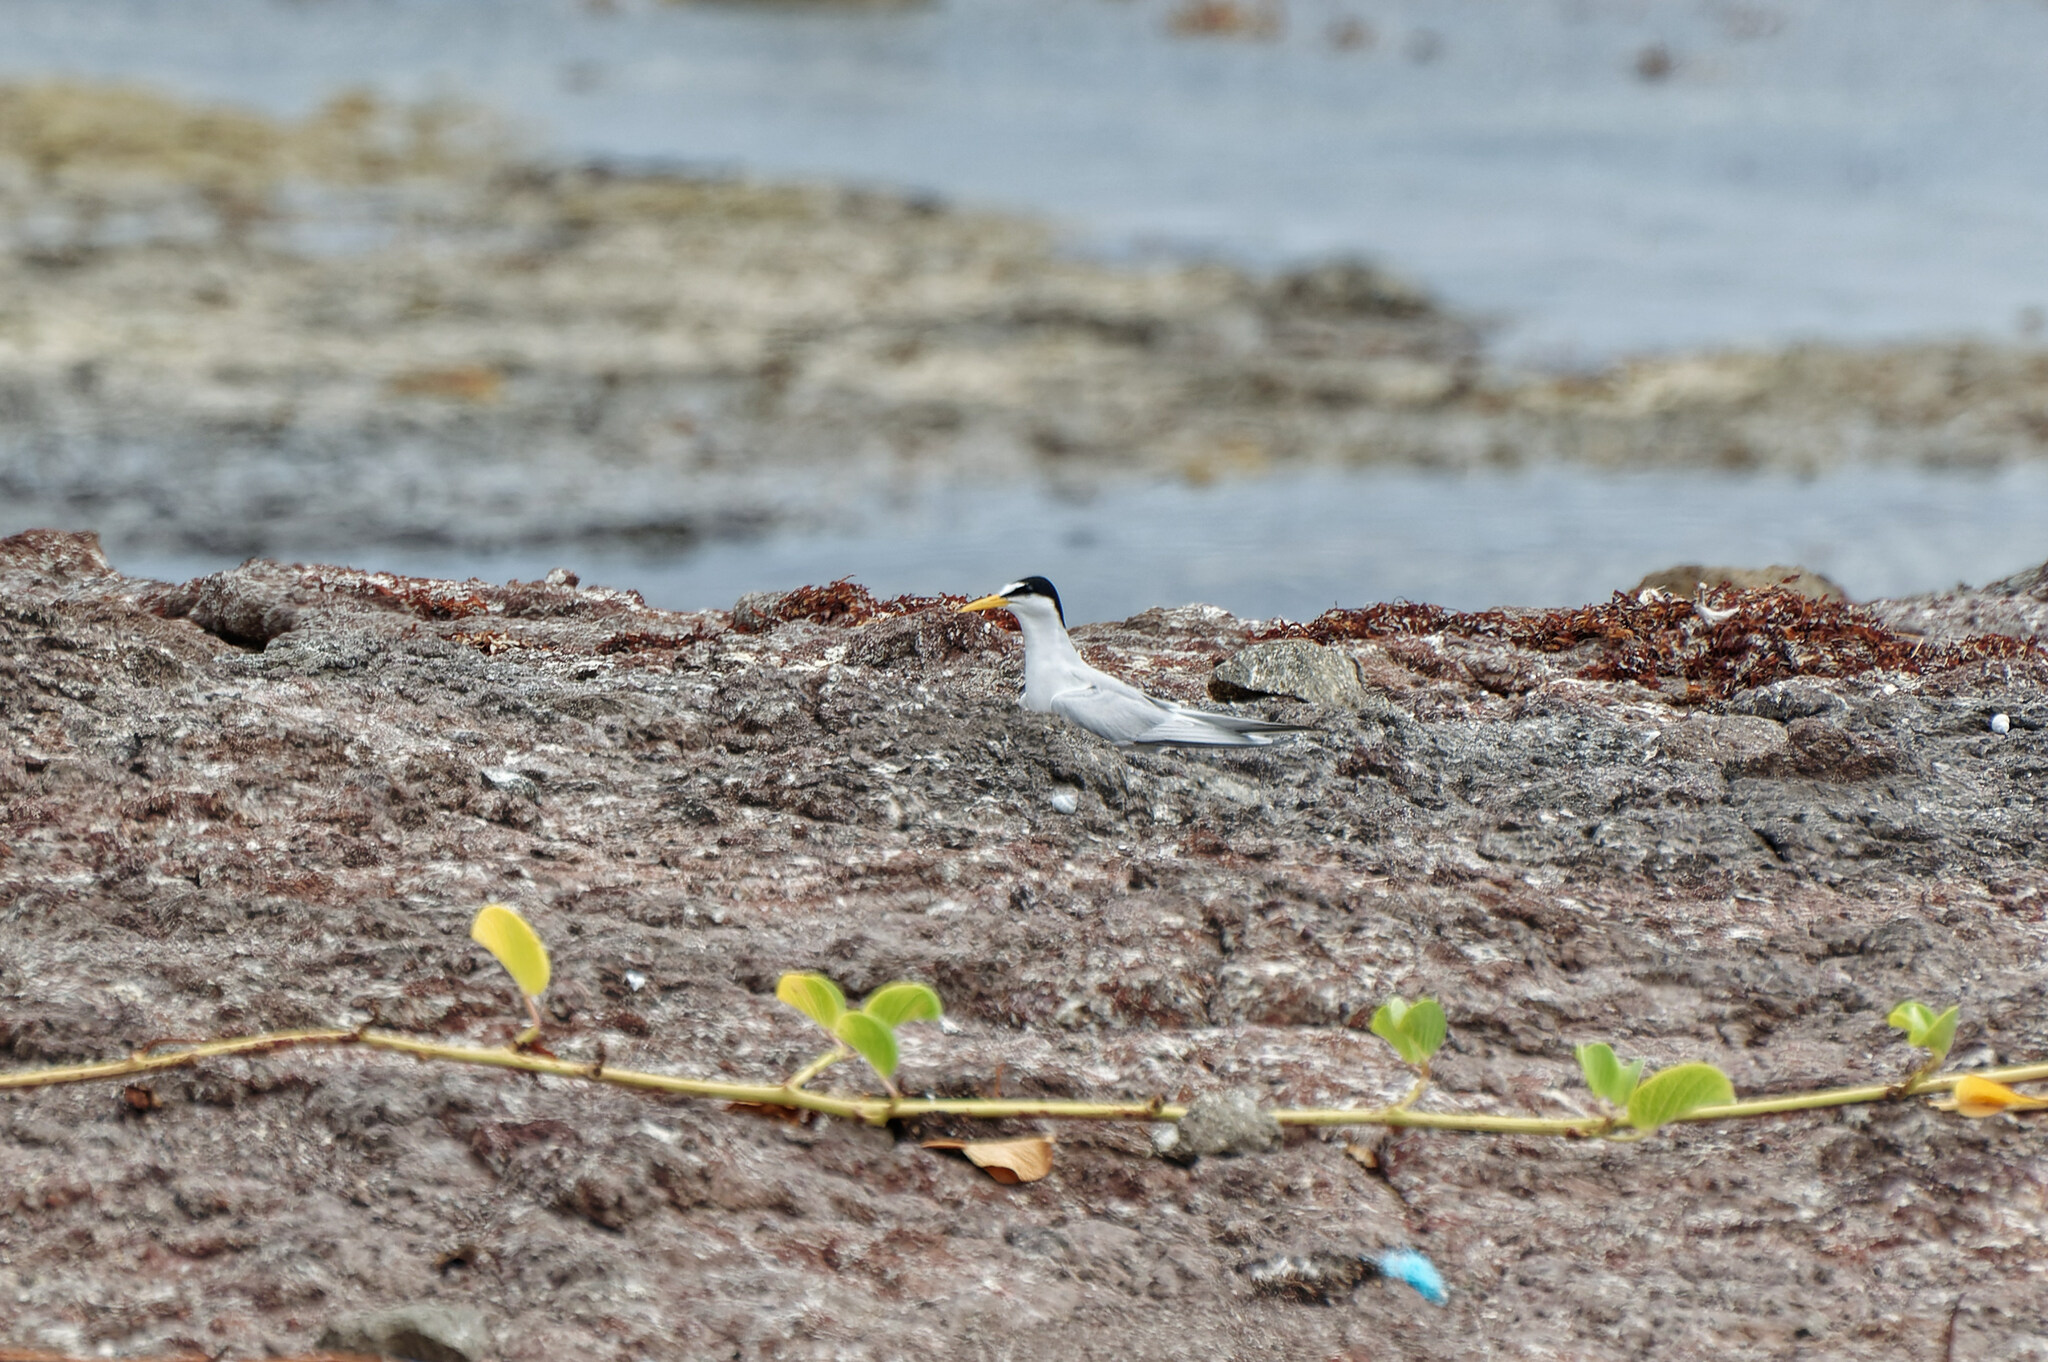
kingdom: Animalia
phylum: Chordata
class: Aves
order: Charadriiformes
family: Laridae
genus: Sternula
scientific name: Sternula antillarum
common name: Least tern
